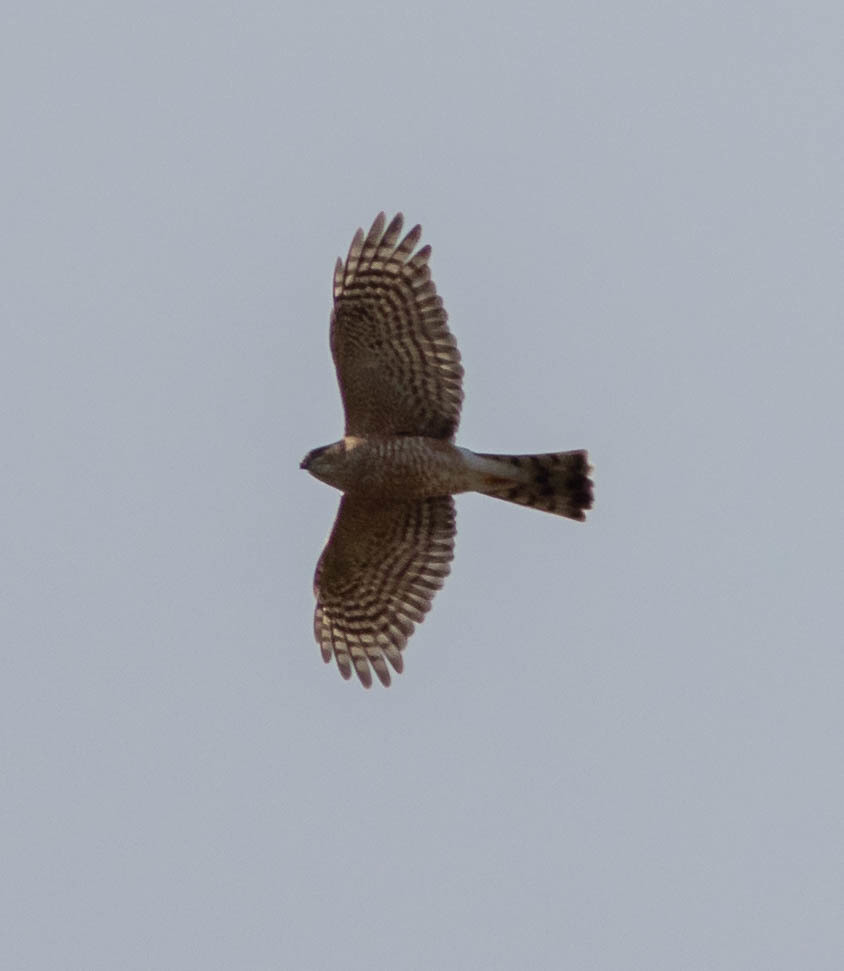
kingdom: Animalia
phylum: Chordata
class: Aves
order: Accipitriformes
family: Accipitridae
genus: Accipiter
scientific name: Accipiter striatus
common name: Sharp-shinned hawk
